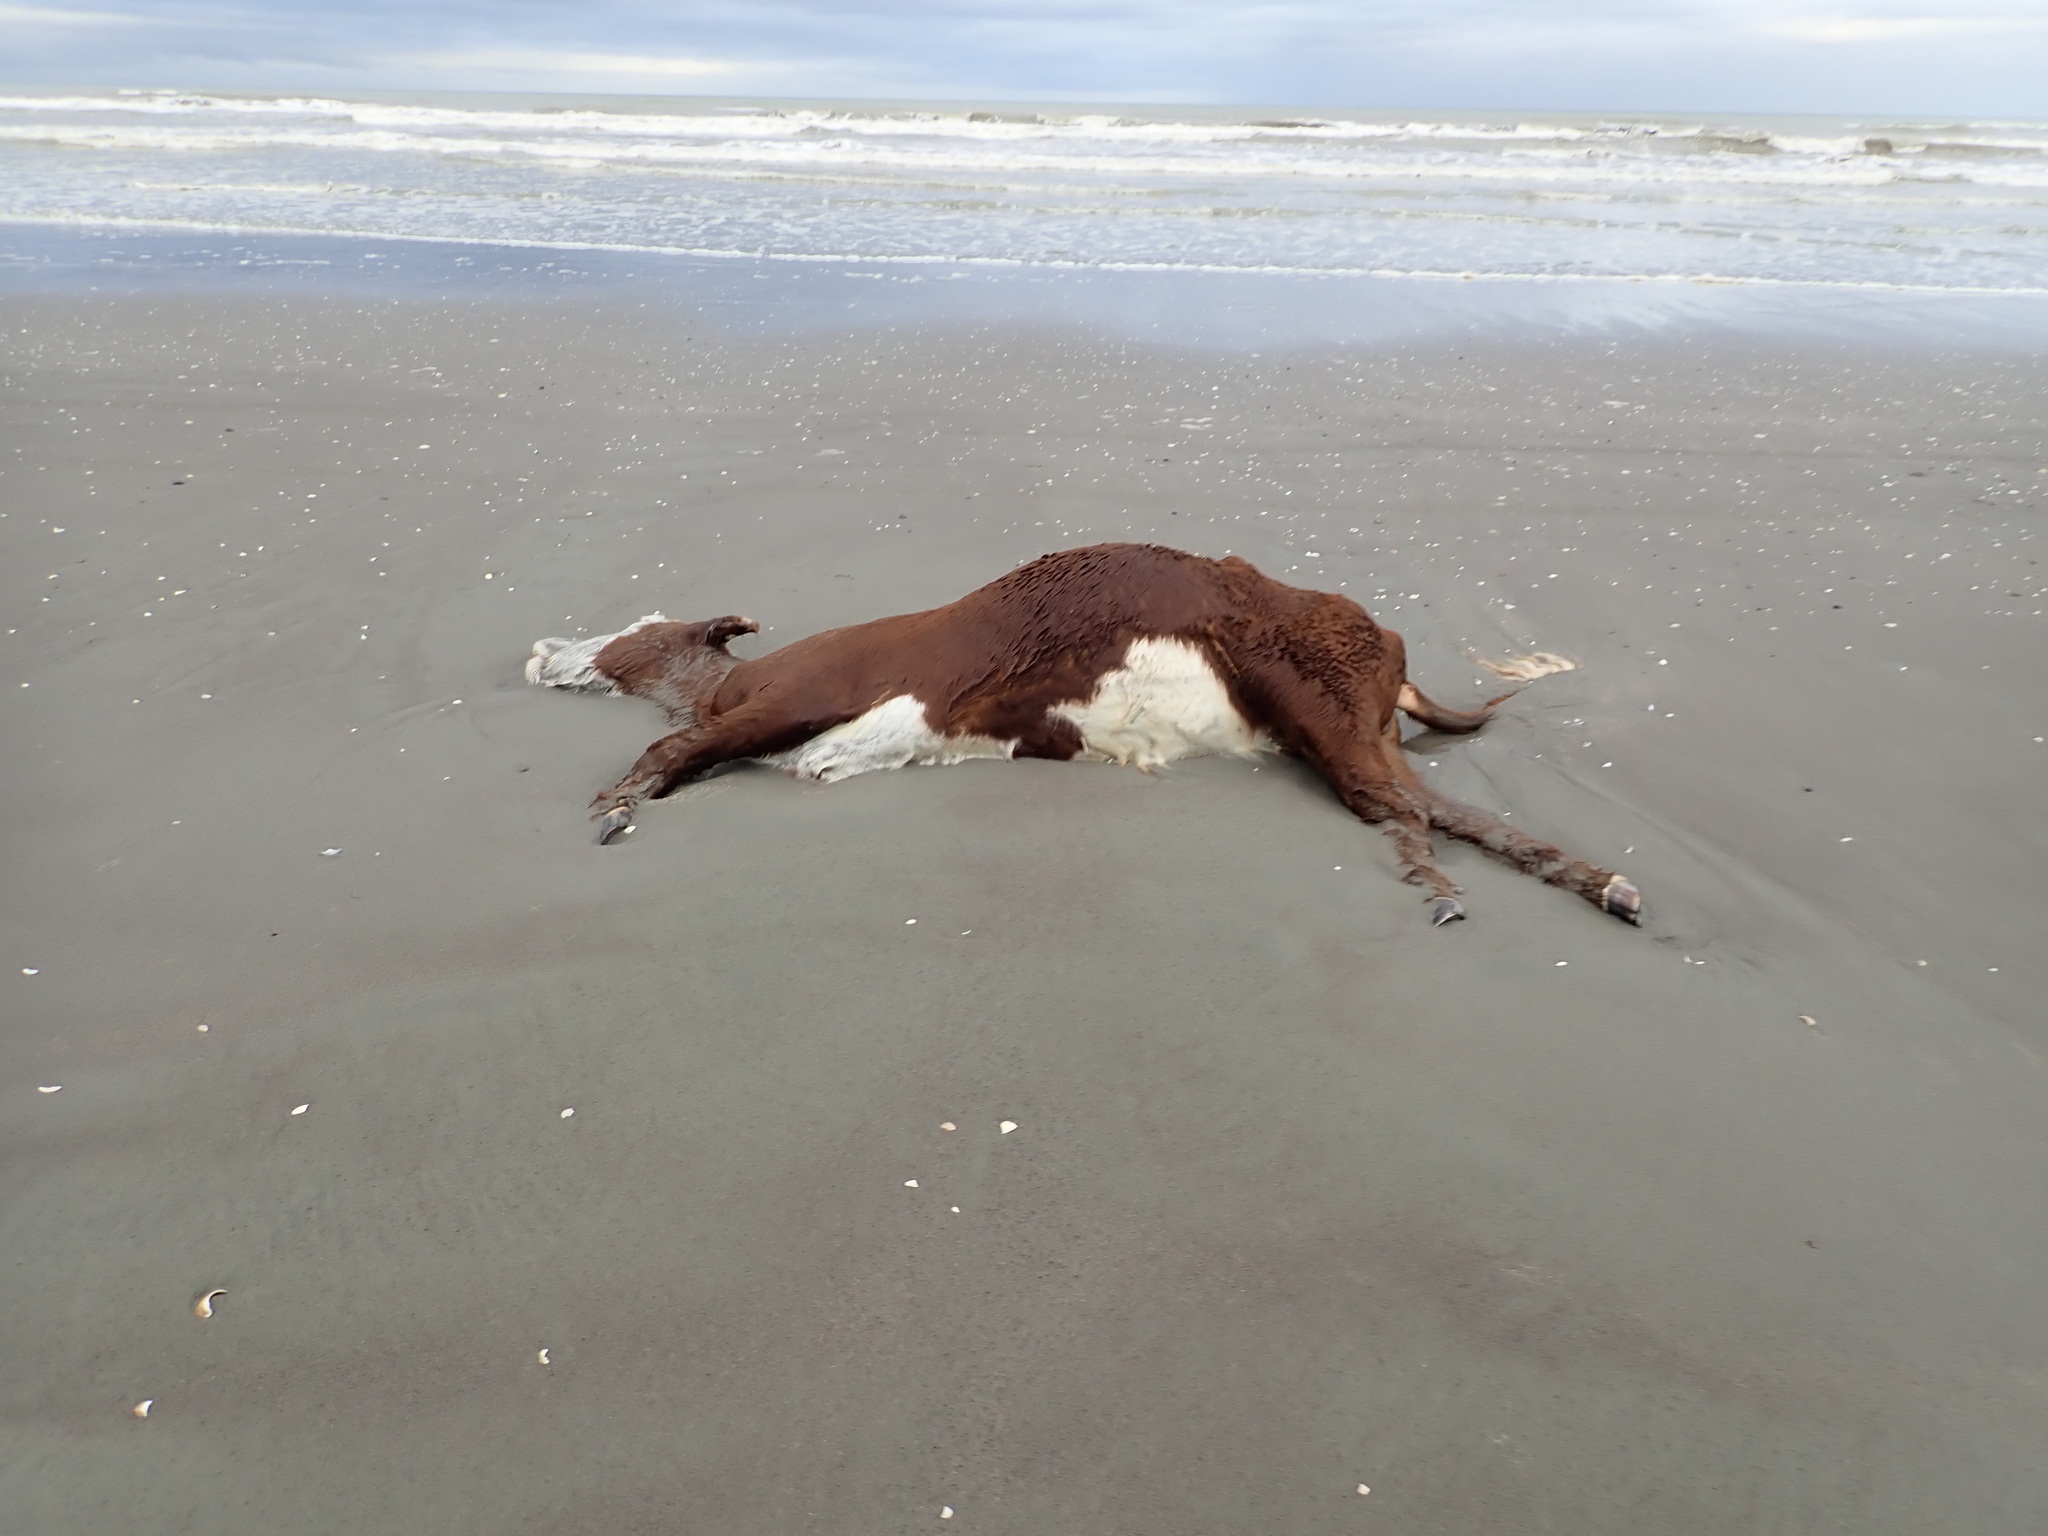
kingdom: Animalia
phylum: Chordata
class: Mammalia
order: Artiodactyla
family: Bovidae
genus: Bos
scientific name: Bos taurus
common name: Domesticated cattle
